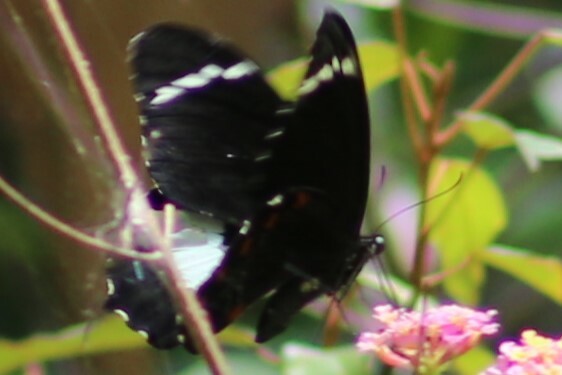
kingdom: Animalia
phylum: Arthropoda
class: Insecta
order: Lepidoptera
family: Papilionidae
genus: Papilio
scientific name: Papilio aegeus
